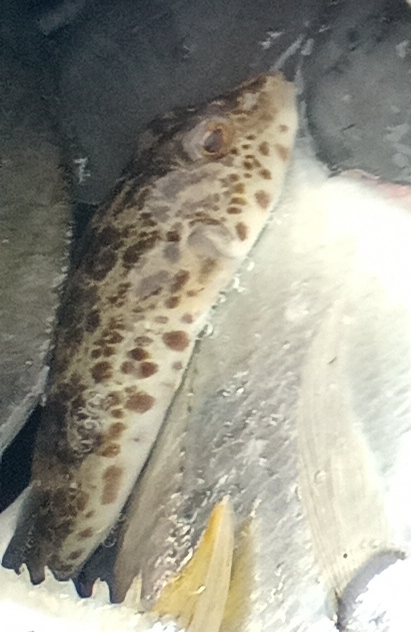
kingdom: Animalia
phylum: Chordata
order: Tetraodontiformes
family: Tetraodontidae
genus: Sphoeroides
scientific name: Sphoeroides greeleyi
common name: Green puffer
